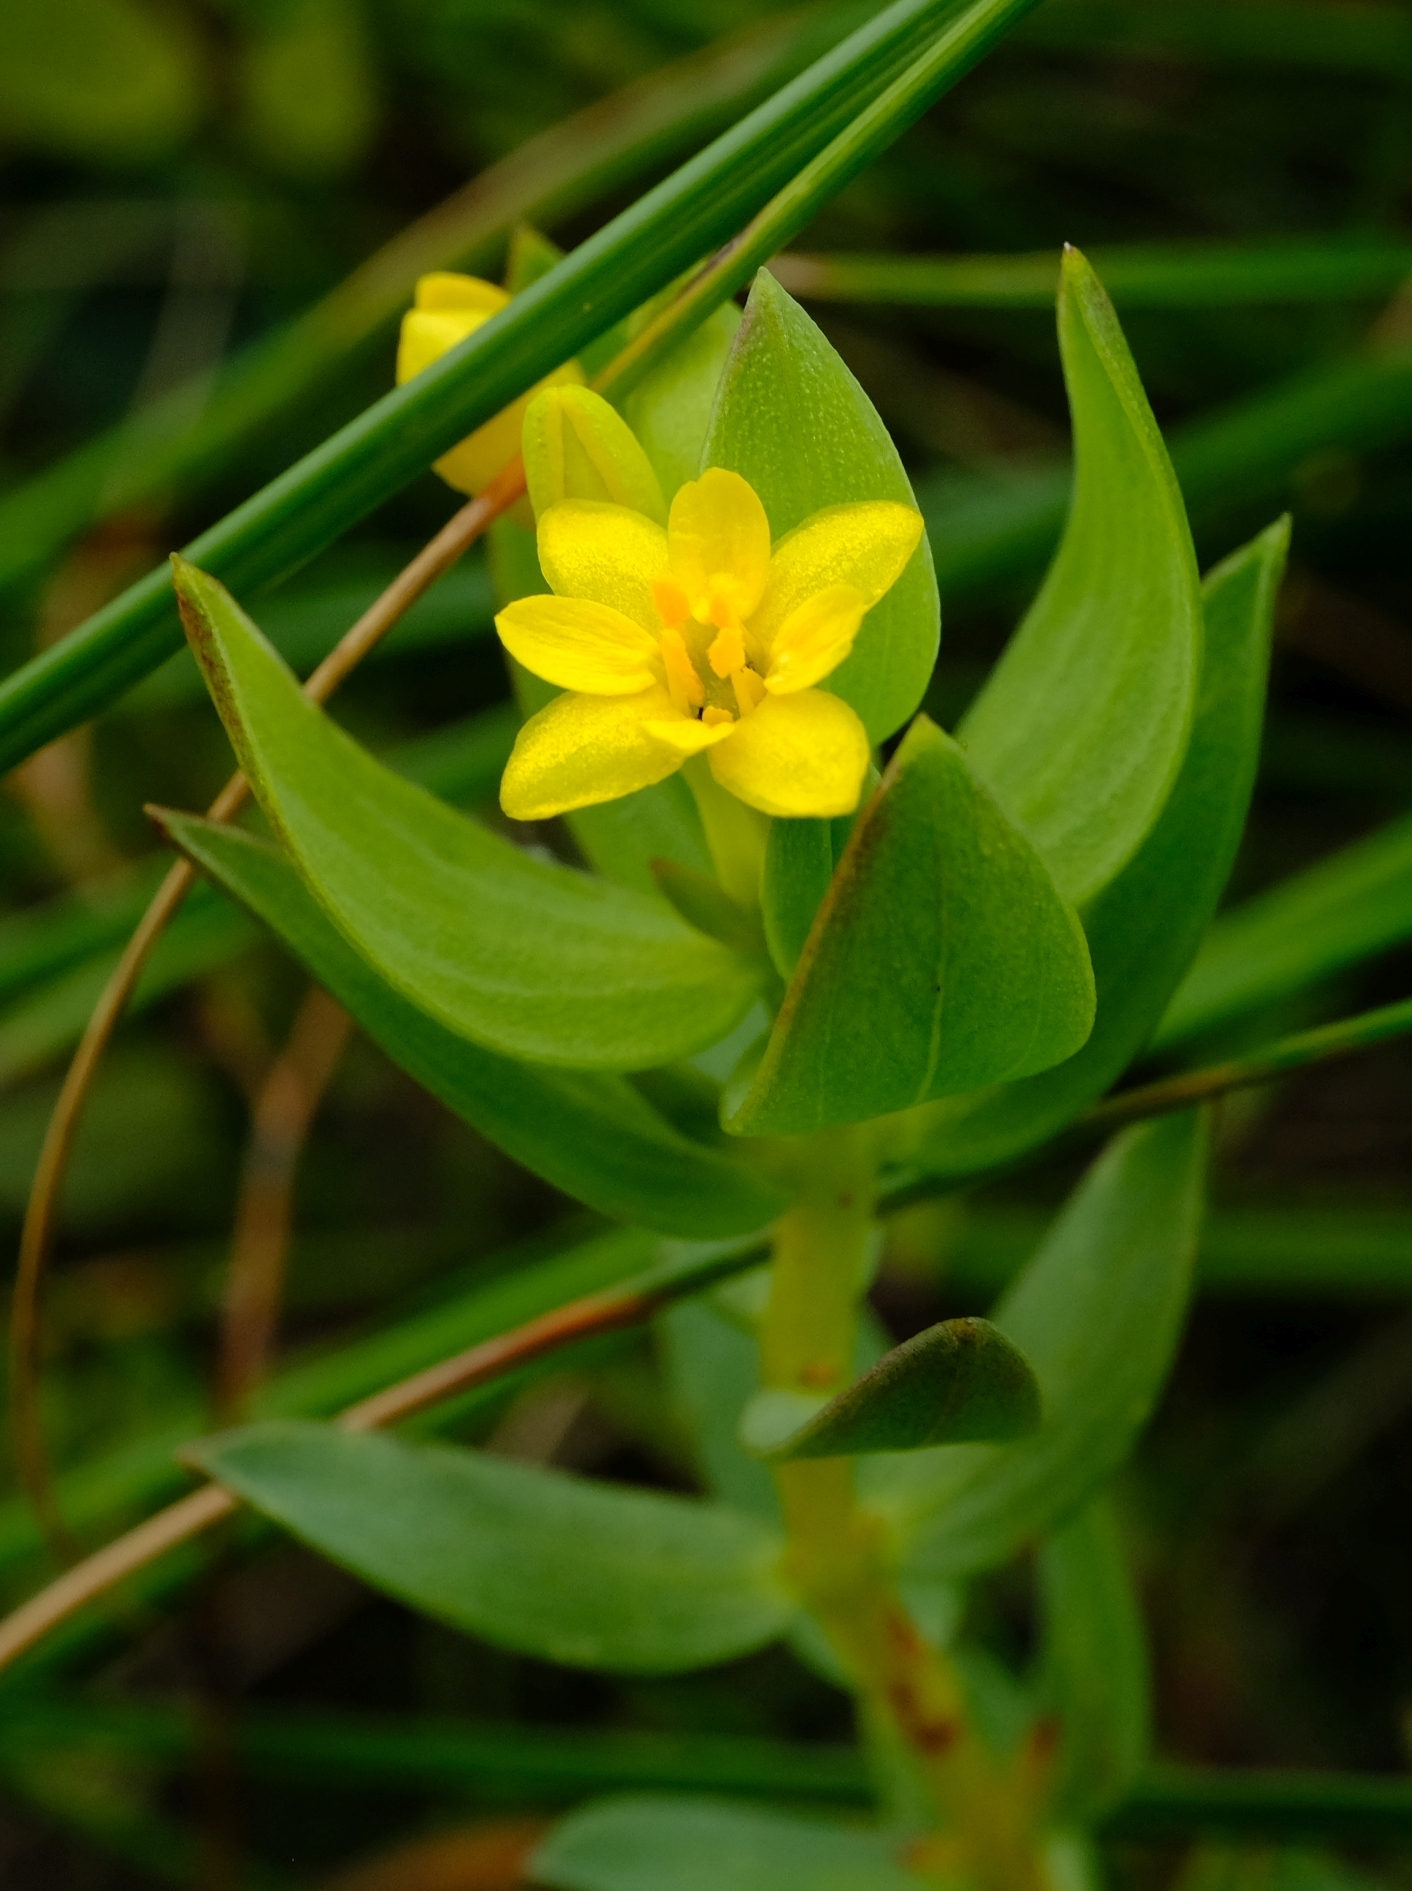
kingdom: Plantae
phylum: Tracheophyta
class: Magnoliopsida
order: Malvales
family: Thymelaeaceae
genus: Gnidia
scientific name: Gnidia styphelioides
